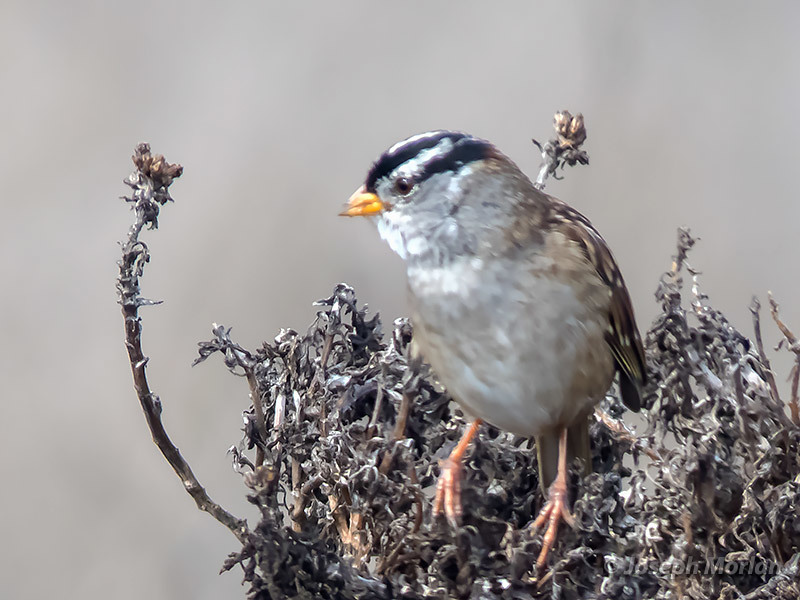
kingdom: Animalia
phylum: Chordata
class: Aves
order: Passeriformes
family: Passerellidae
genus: Zonotrichia
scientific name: Zonotrichia leucophrys
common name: White-crowned sparrow
